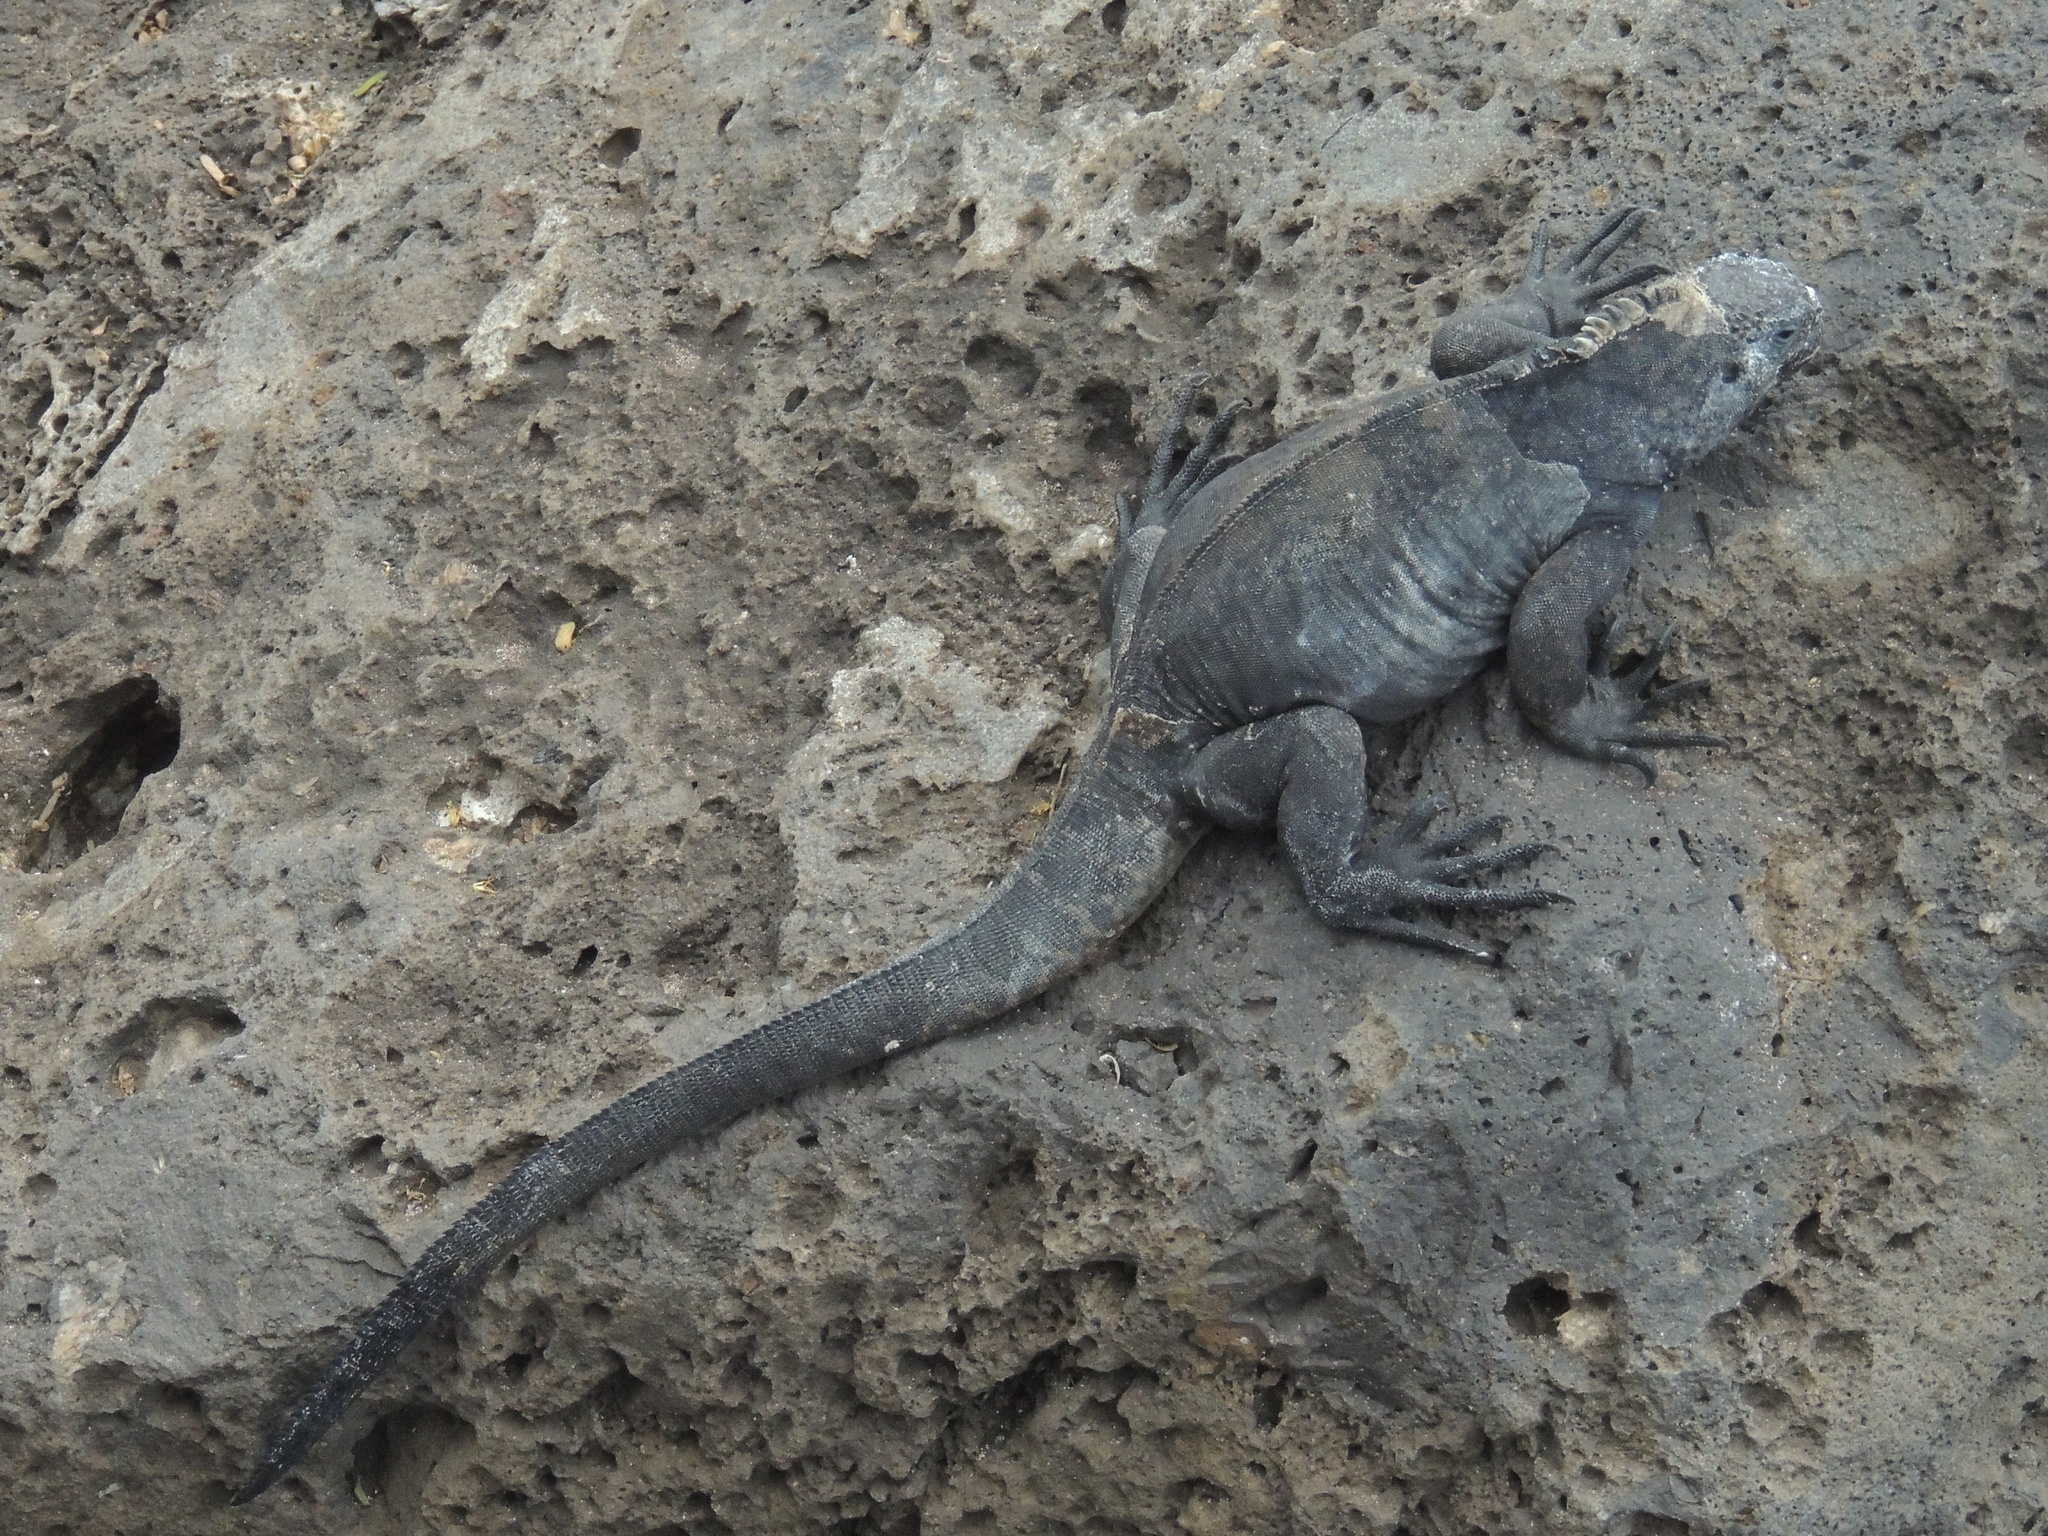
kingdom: Animalia
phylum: Chordata
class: Squamata
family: Iguanidae
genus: Amblyrhynchus
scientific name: Amblyrhynchus cristatus
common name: Marine iguana
